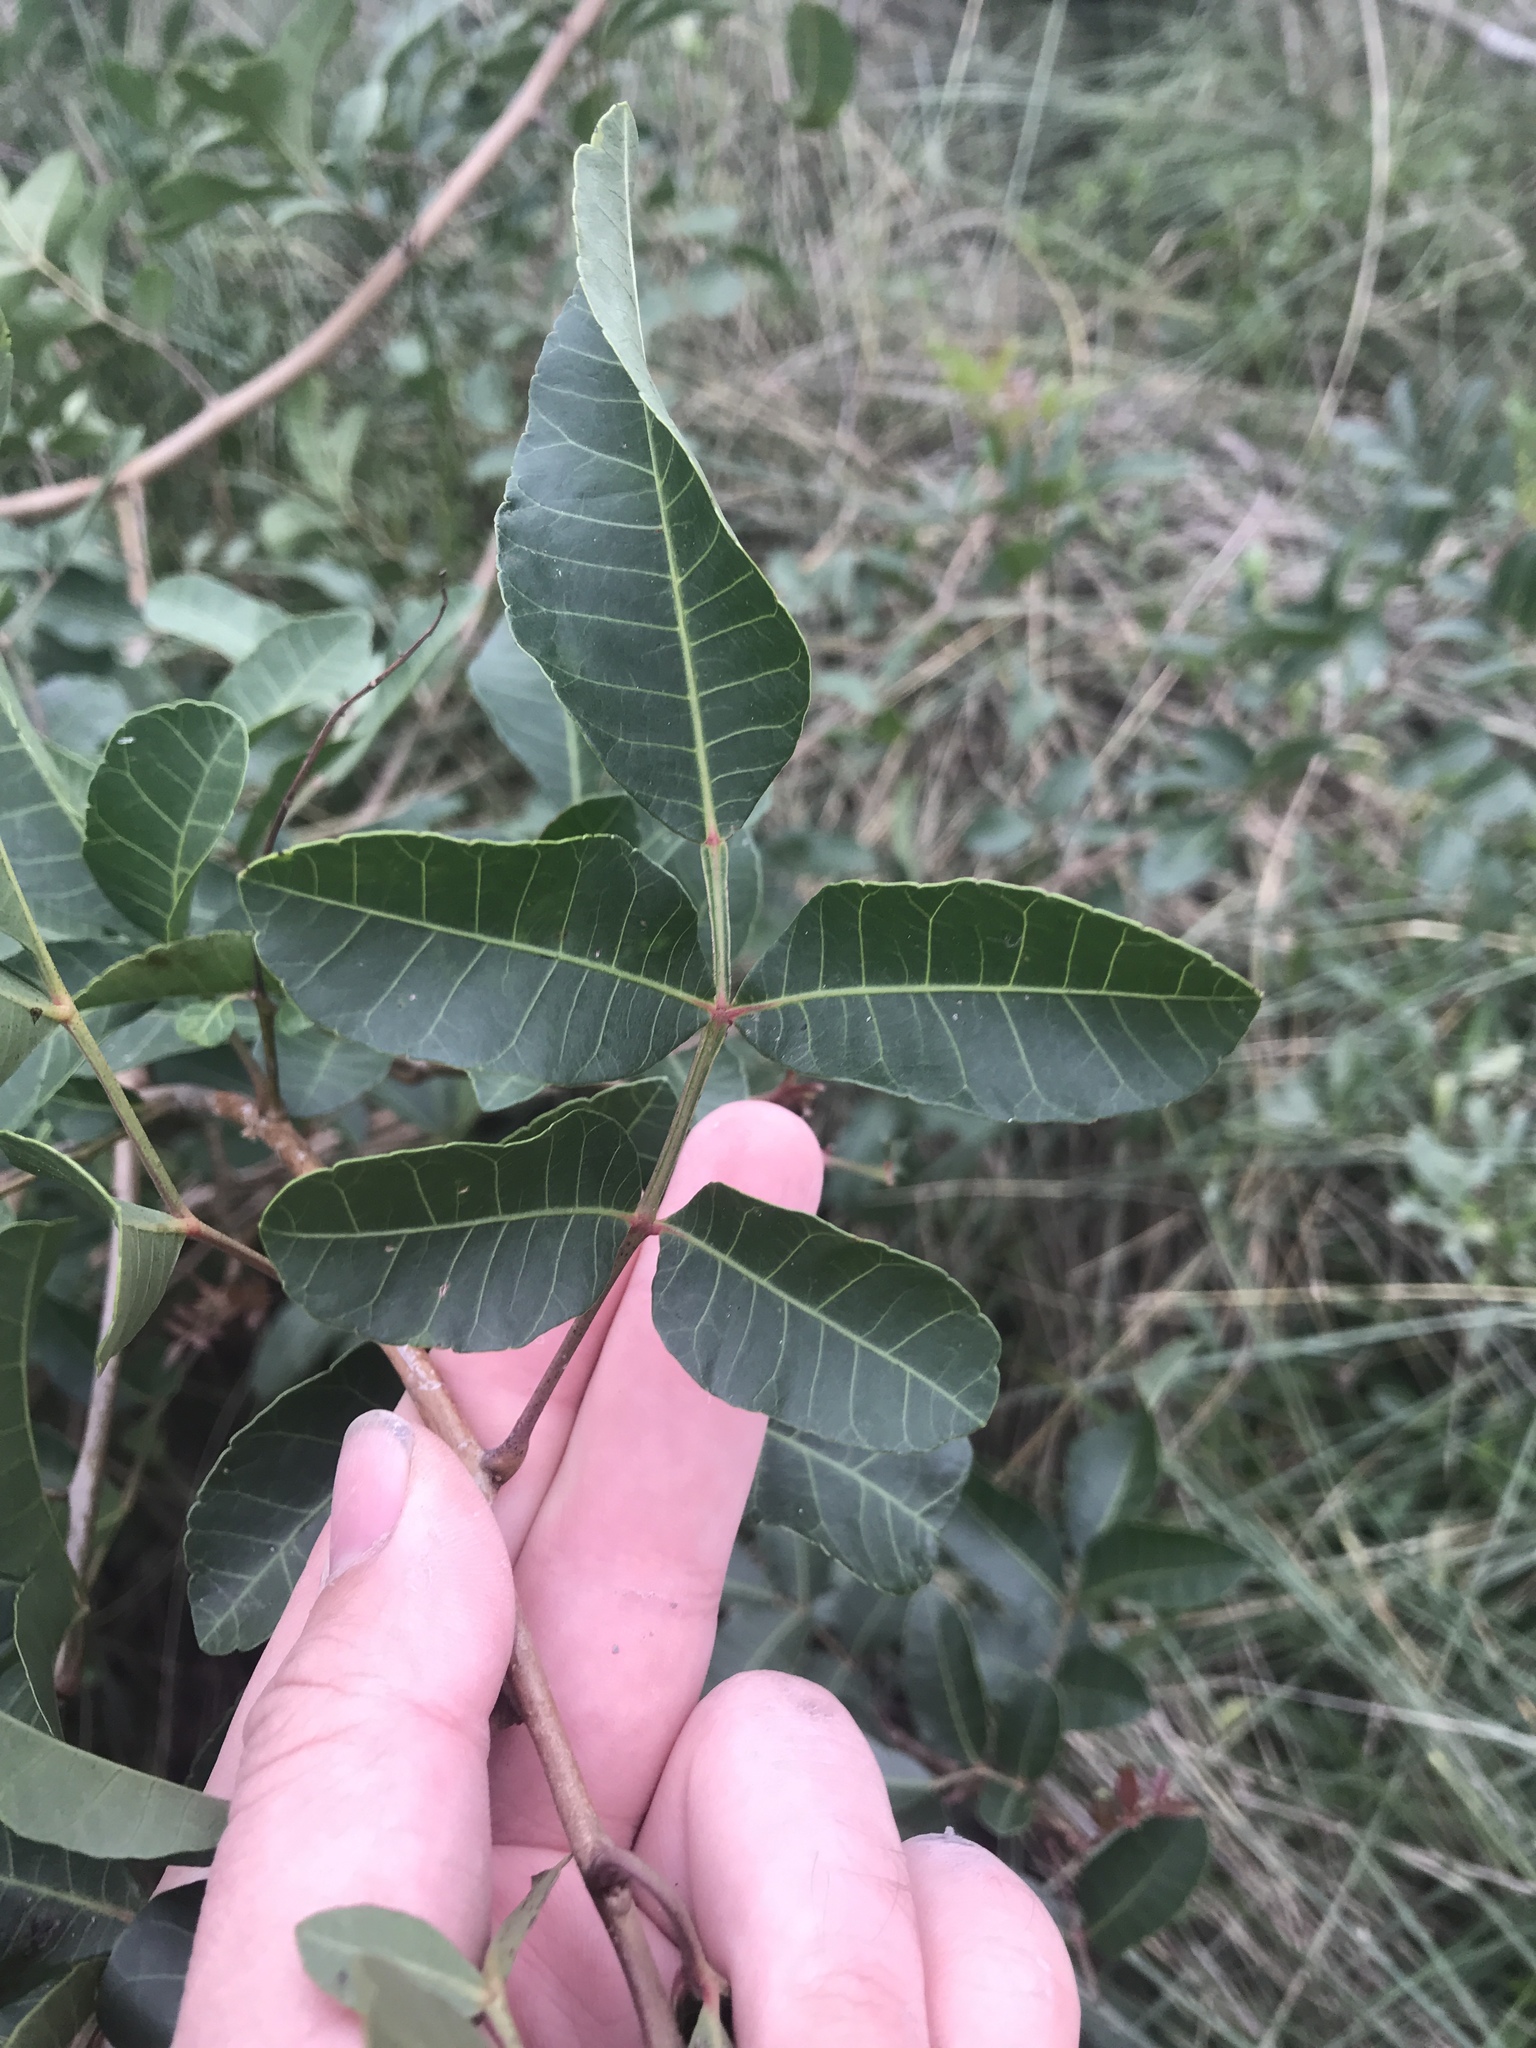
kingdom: Plantae
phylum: Tracheophyta
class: Magnoliopsida
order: Sapindales
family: Anacardiaceae
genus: Schinus
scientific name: Schinus terebinthifolia
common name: Brazilian peppertree
